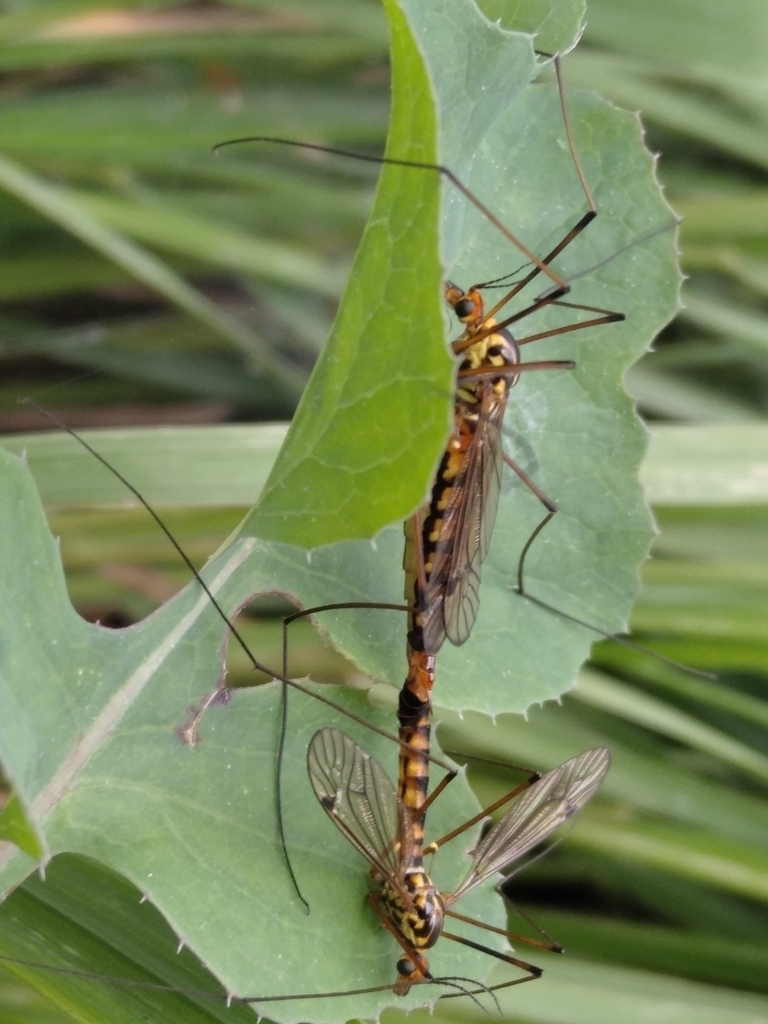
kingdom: Animalia
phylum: Arthropoda
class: Insecta
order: Diptera
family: Tipulidae
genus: Nephrotoma
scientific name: Nephrotoma scalaris
